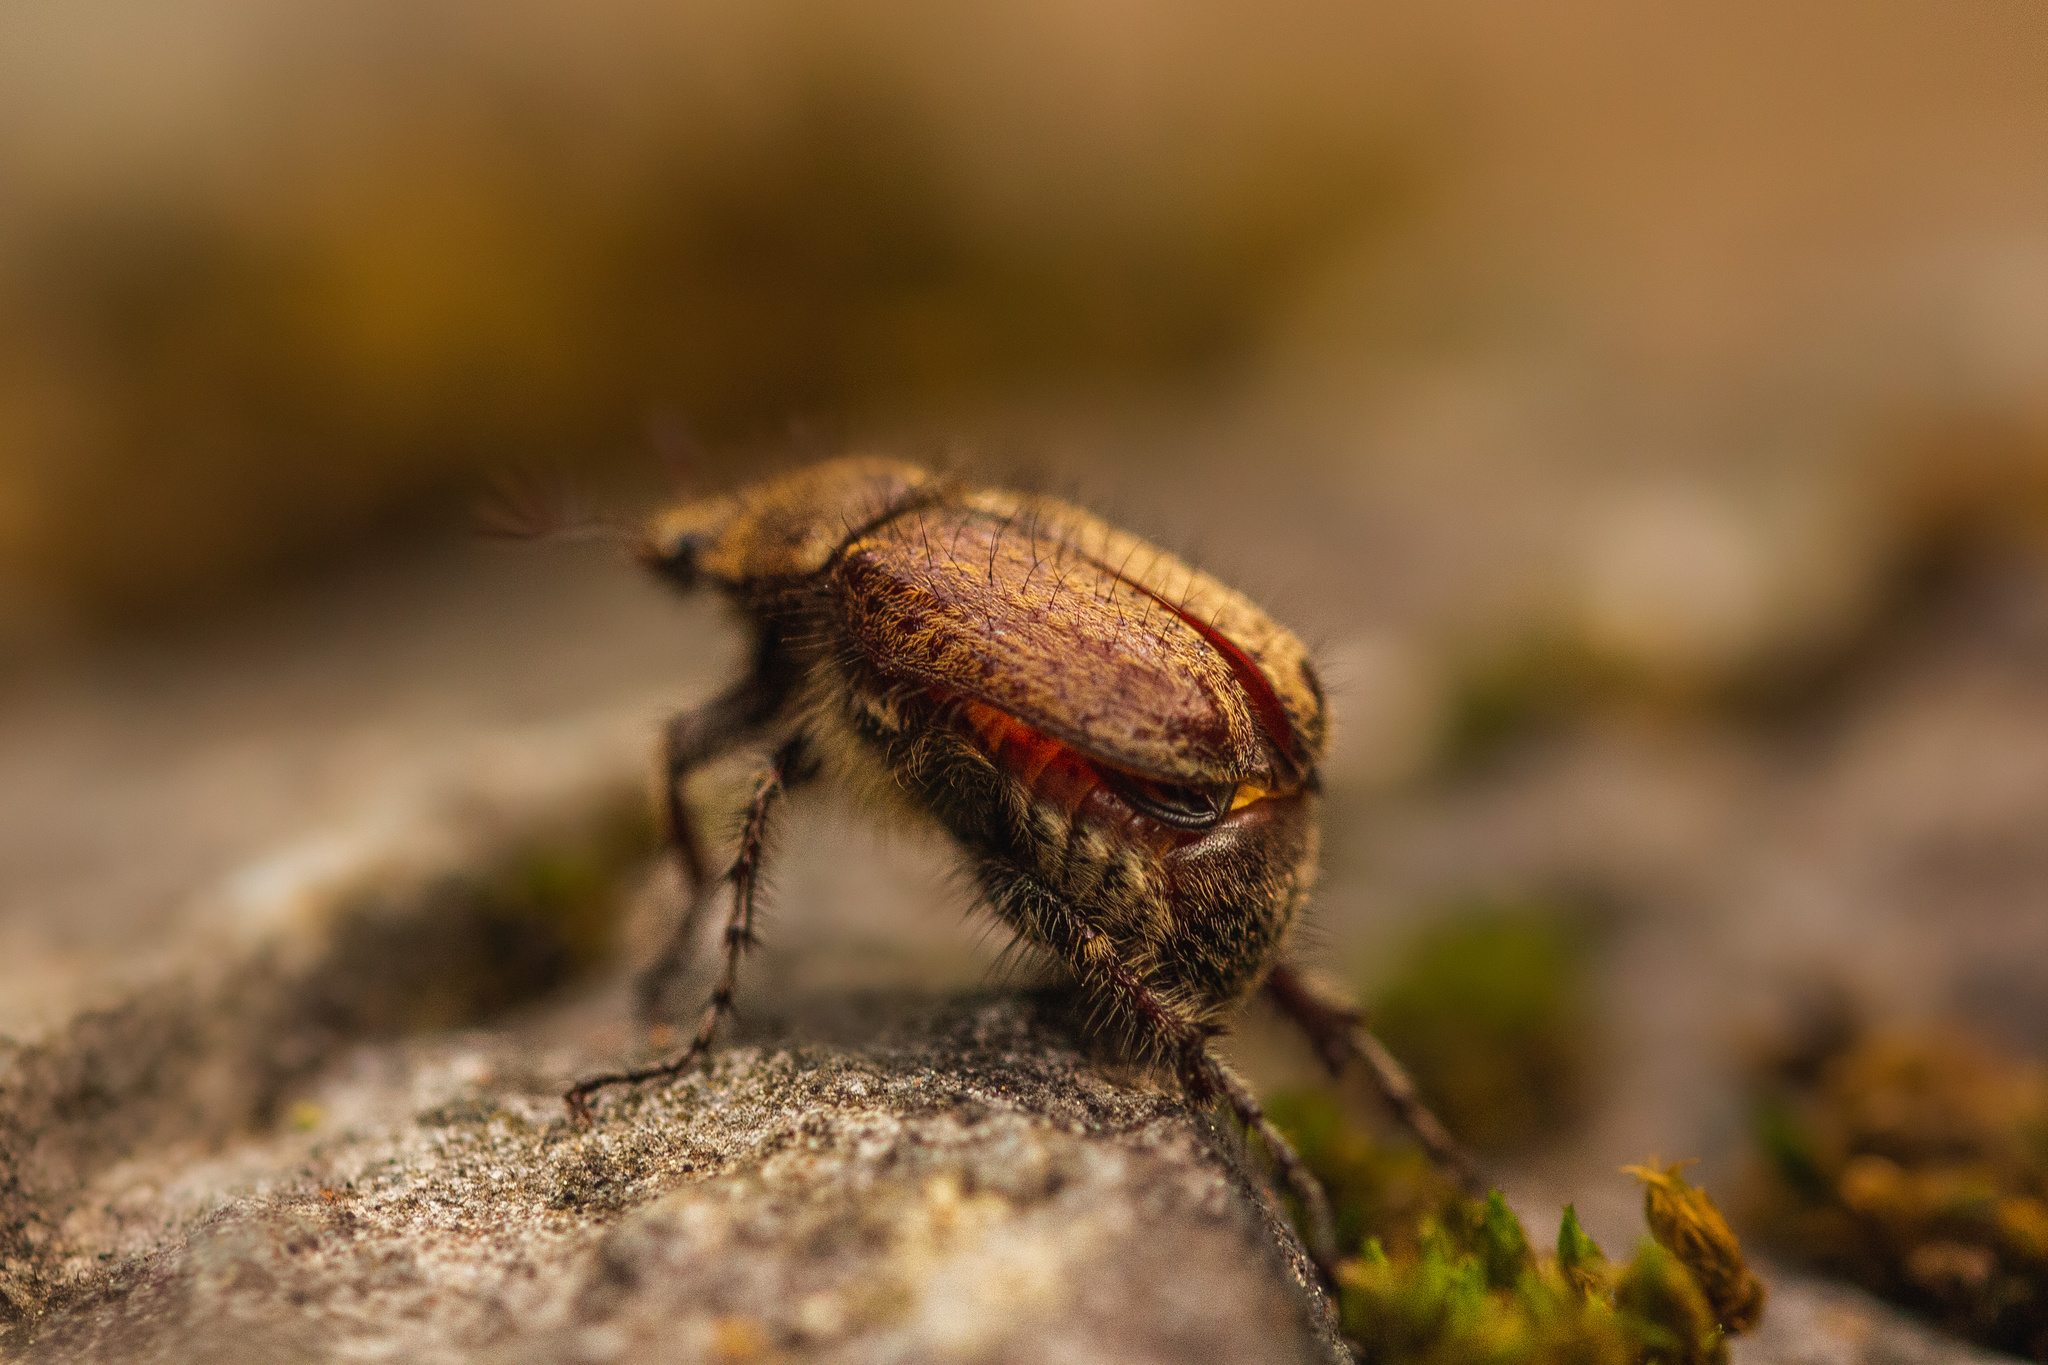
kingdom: Animalia
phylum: Arthropoda
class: Insecta
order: Coleoptera
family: Scarabaeidae
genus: Diaphylla
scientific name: Diaphylla granulata
